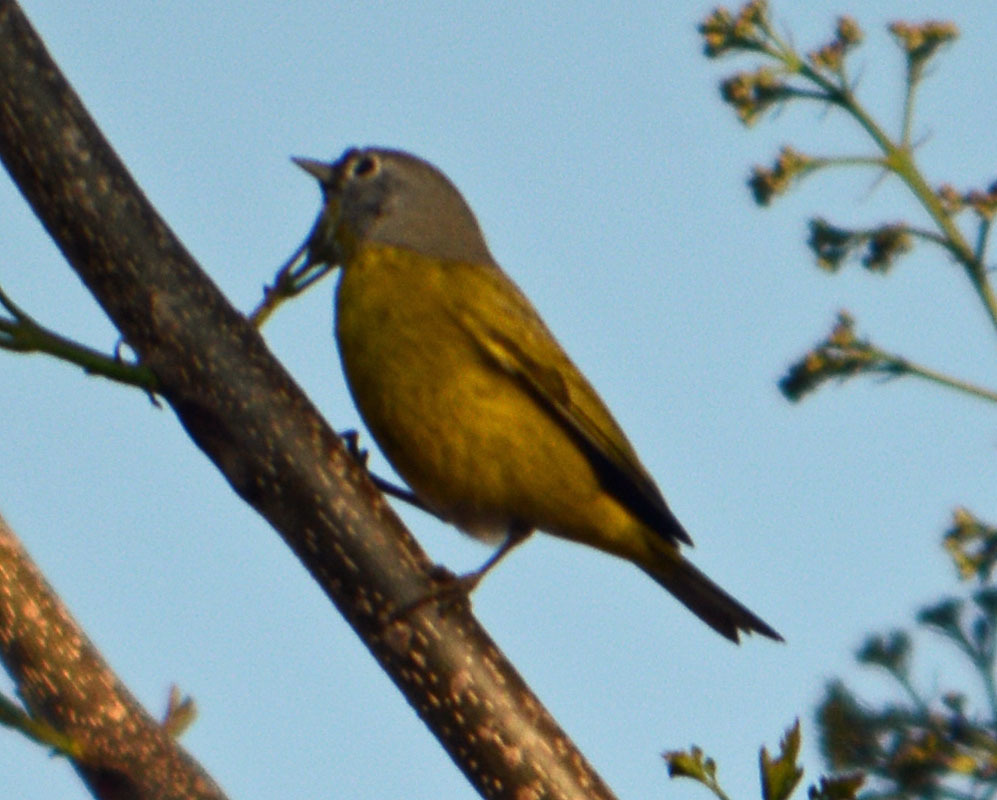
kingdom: Animalia
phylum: Chordata
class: Aves
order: Passeriformes
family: Parulidae
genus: Leiothlypis
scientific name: Leiothlypis ruficapilla
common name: Nashville warbler
